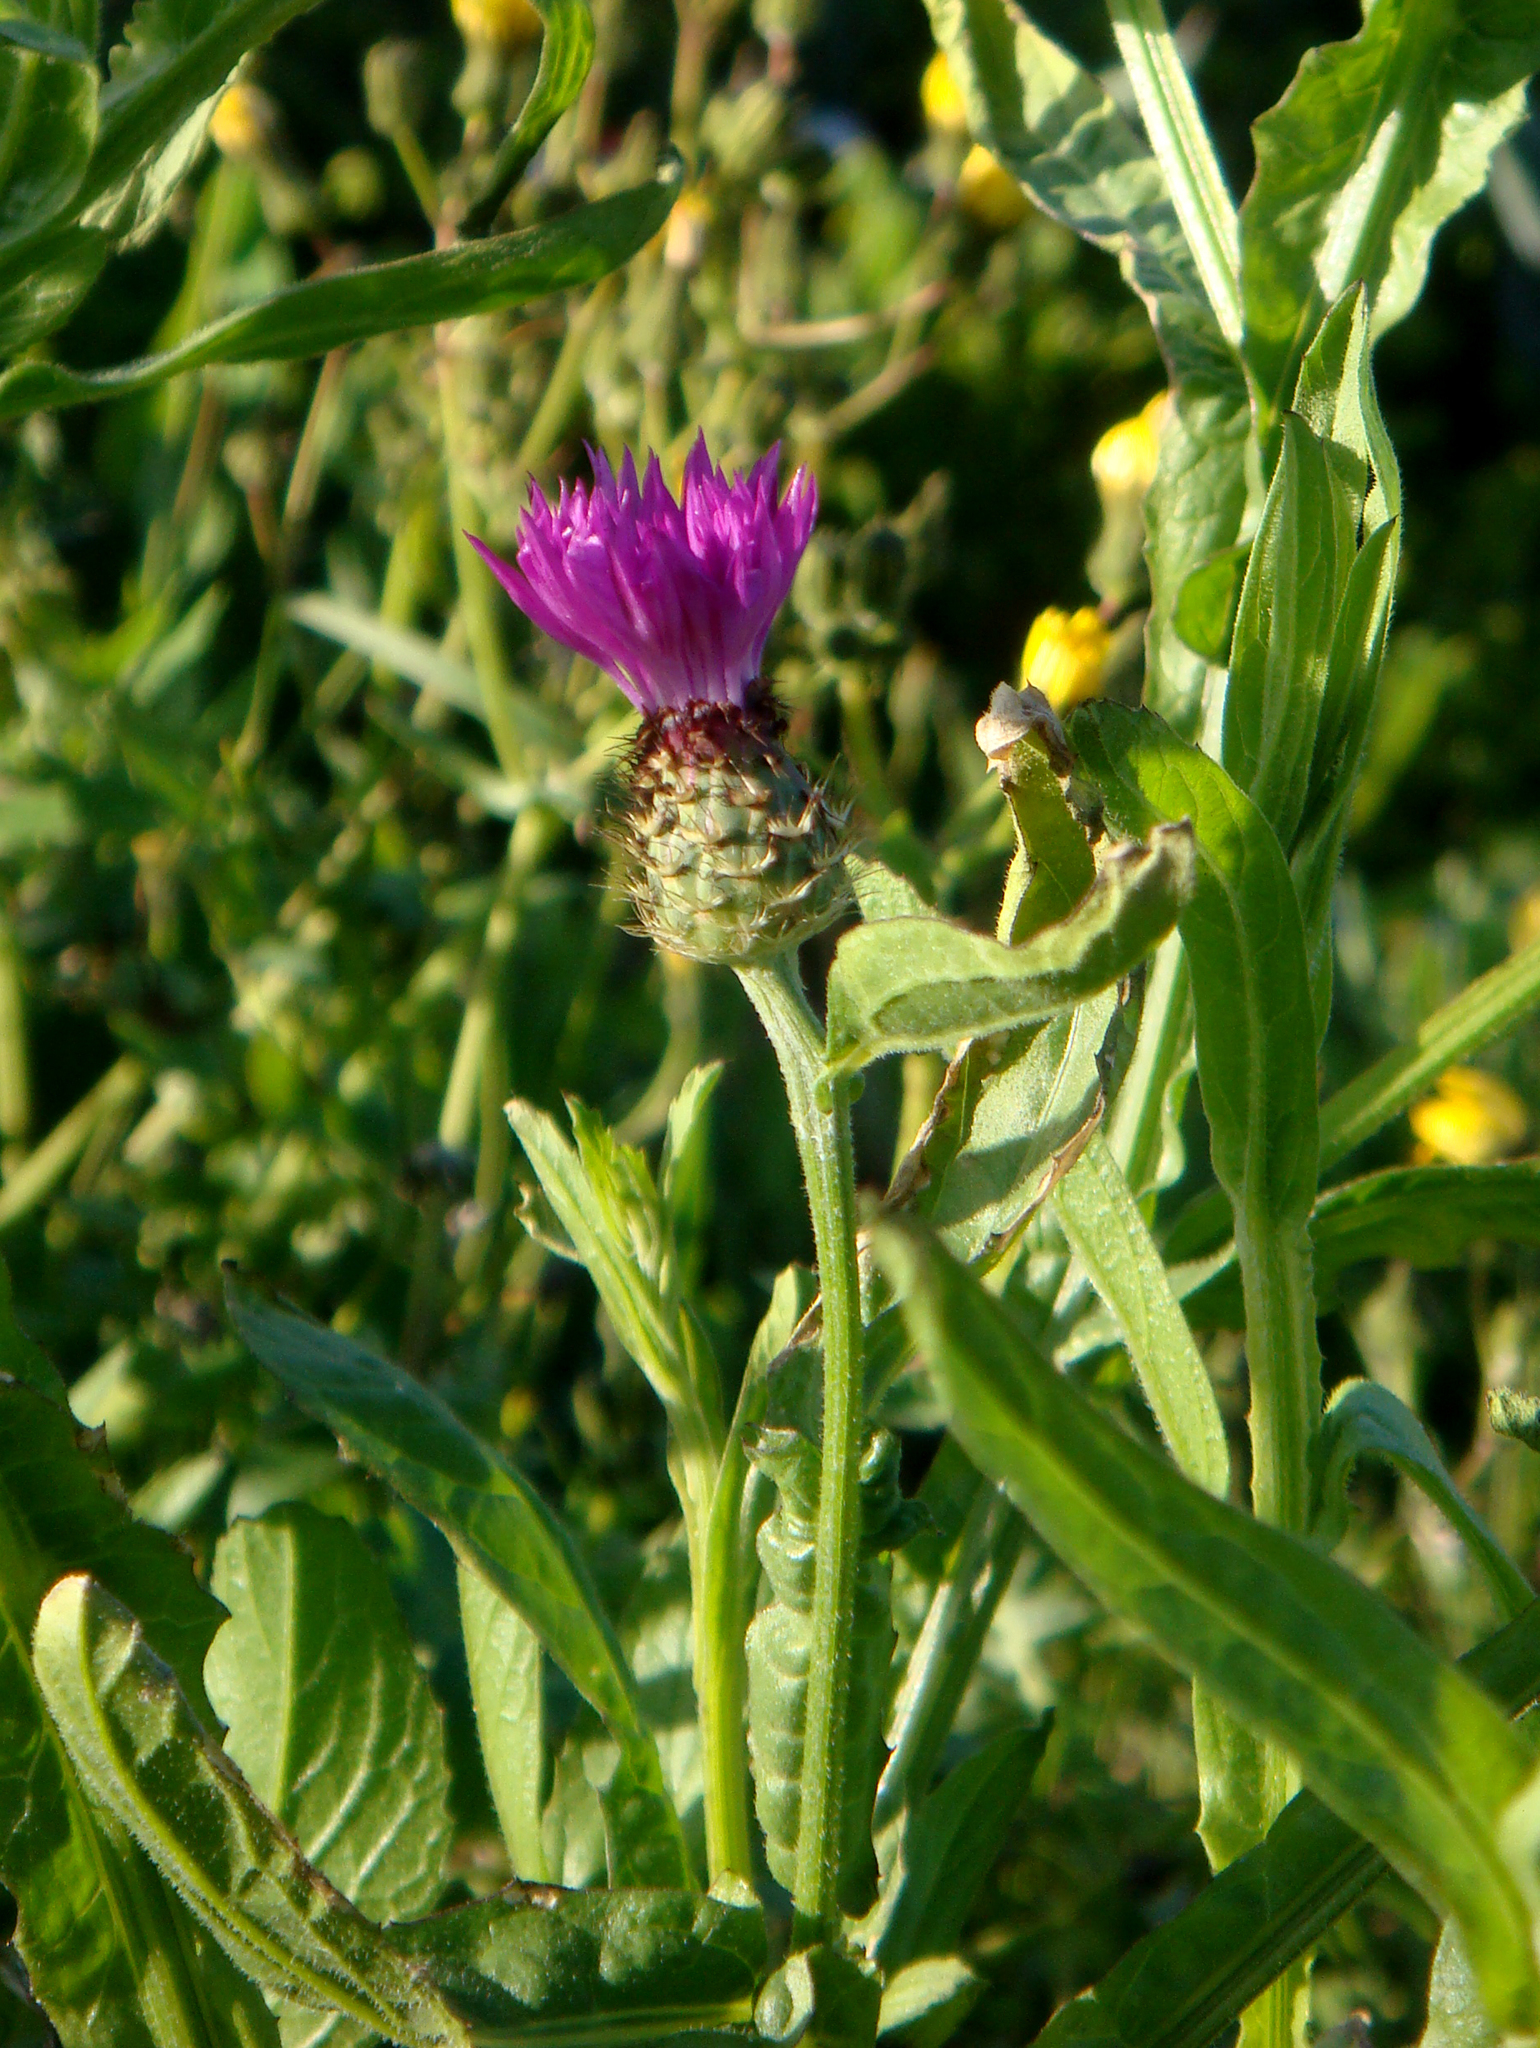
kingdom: Plantae
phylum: Tracheophyta
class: Magnoliopsida
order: Asterales
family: Asteraceae
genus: Centaurea
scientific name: Centaurea napifolia
